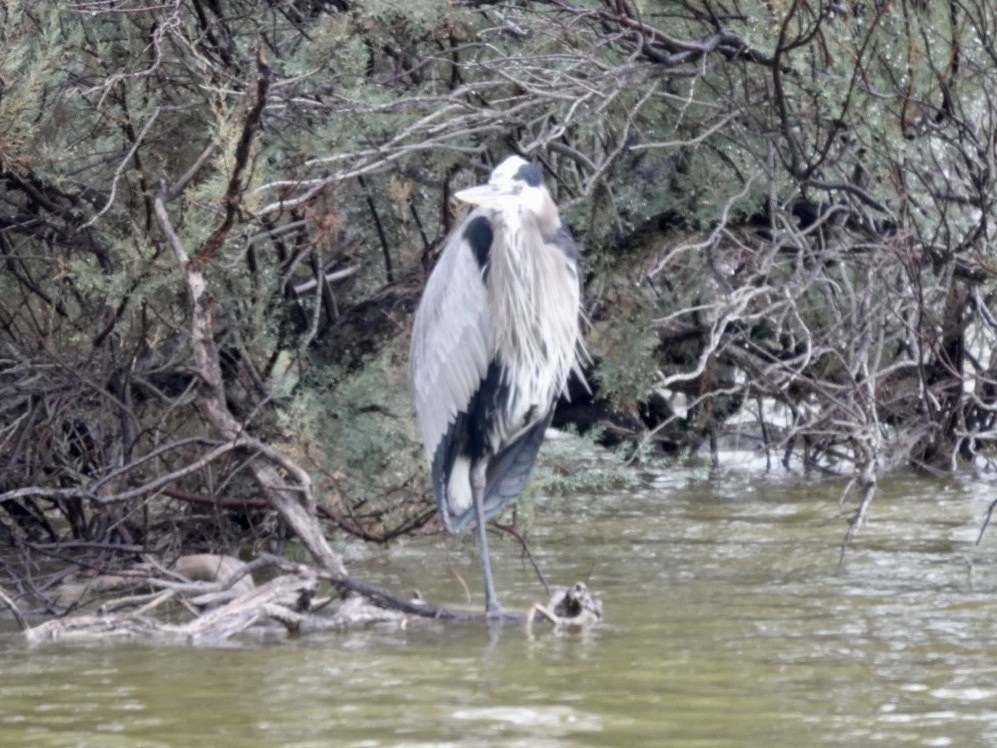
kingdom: Animalia
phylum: Chordata
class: Aves
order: Pelecaniformes
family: Ardeidae
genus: Ardea
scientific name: Ardea herodias
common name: Great blue heron
